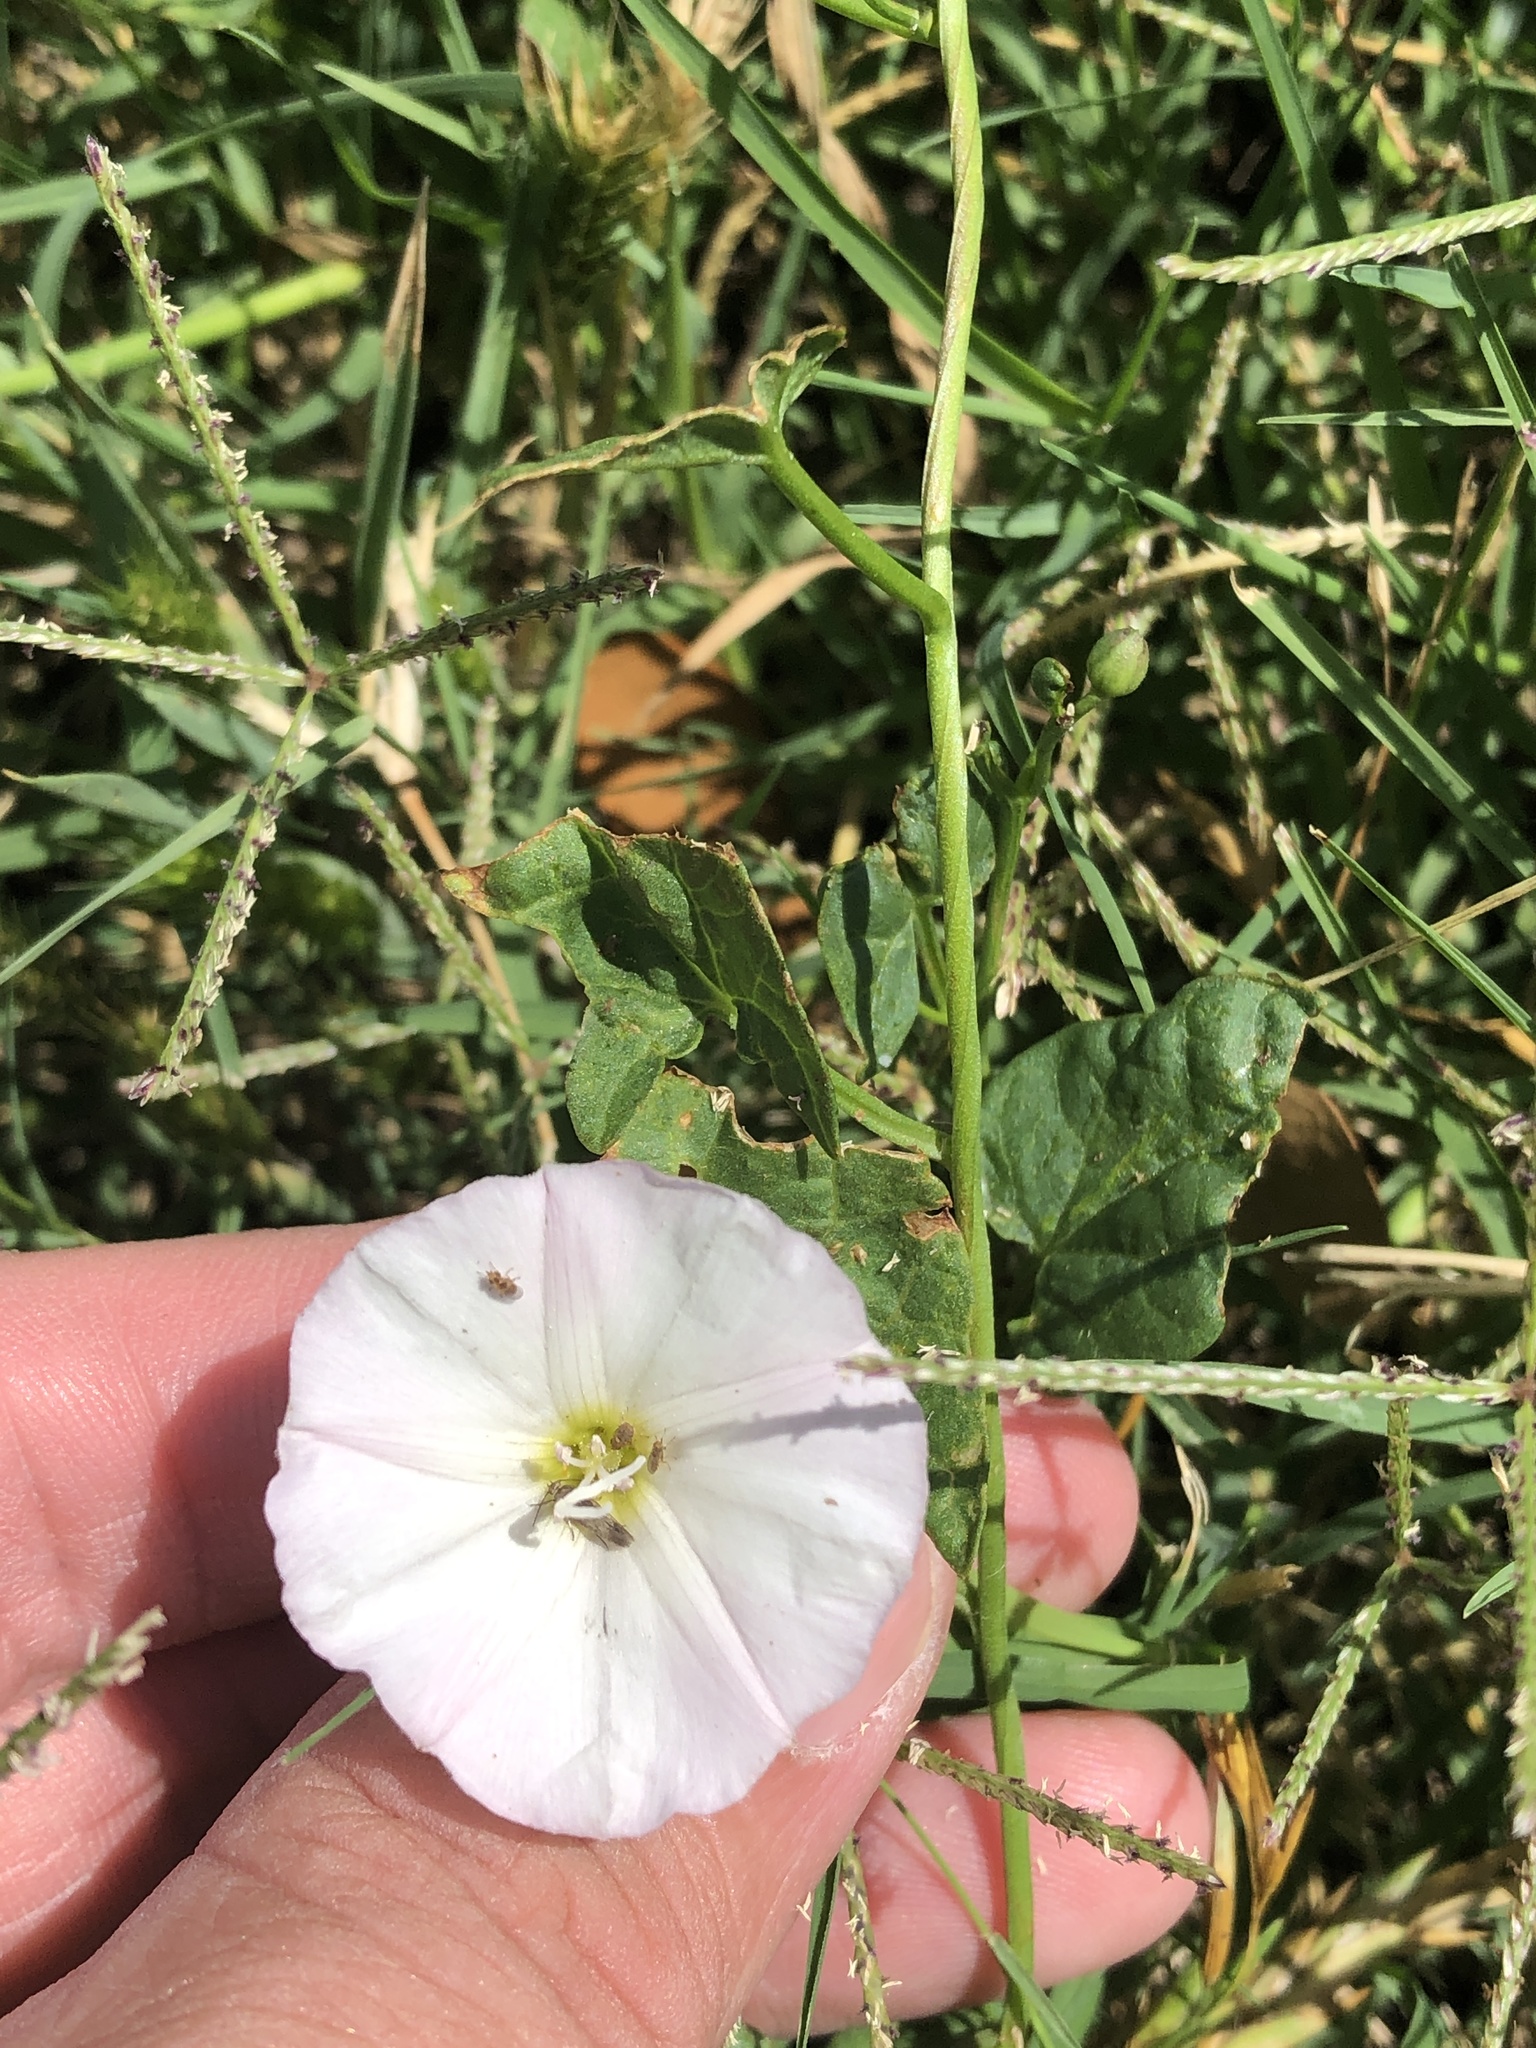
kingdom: Plantae
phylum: Tracheophyta
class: Magnoliopsida
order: Solanales
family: Convolvulaceae
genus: Convolvulus
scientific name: Convolvulus arvensis
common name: Field bindweed
